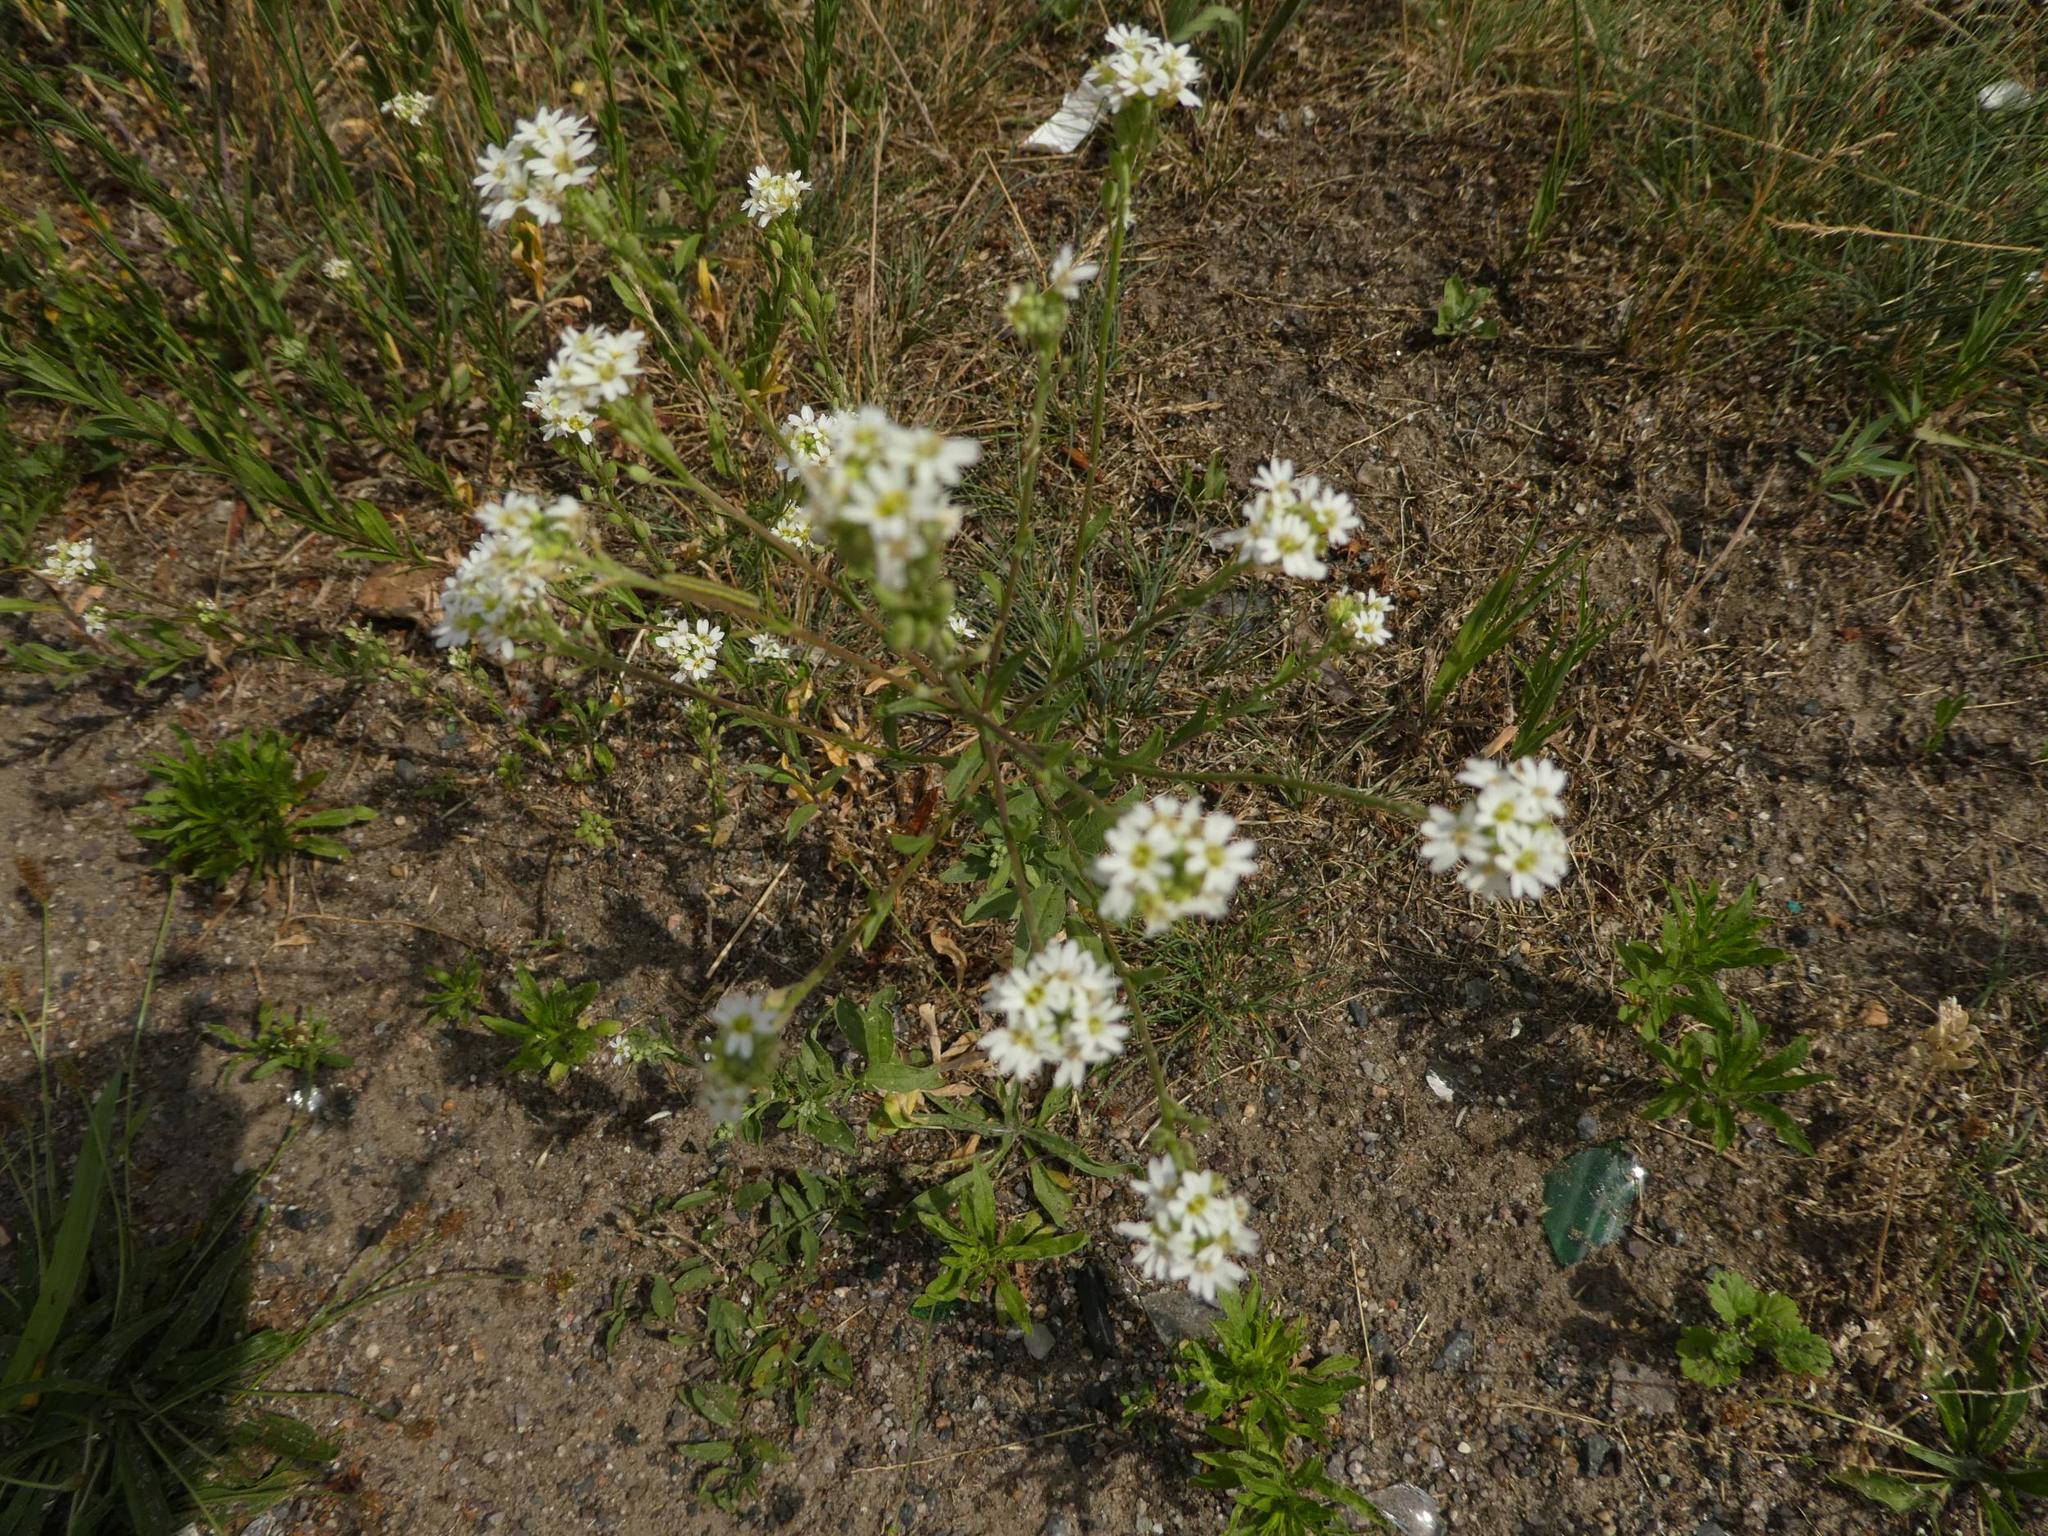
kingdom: Plantae
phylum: Tracheophyta
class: Magnoliopsida
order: Brassicales
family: Brassicaceae
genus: Berteroa
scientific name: Berteroa incana
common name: Hoary alison
